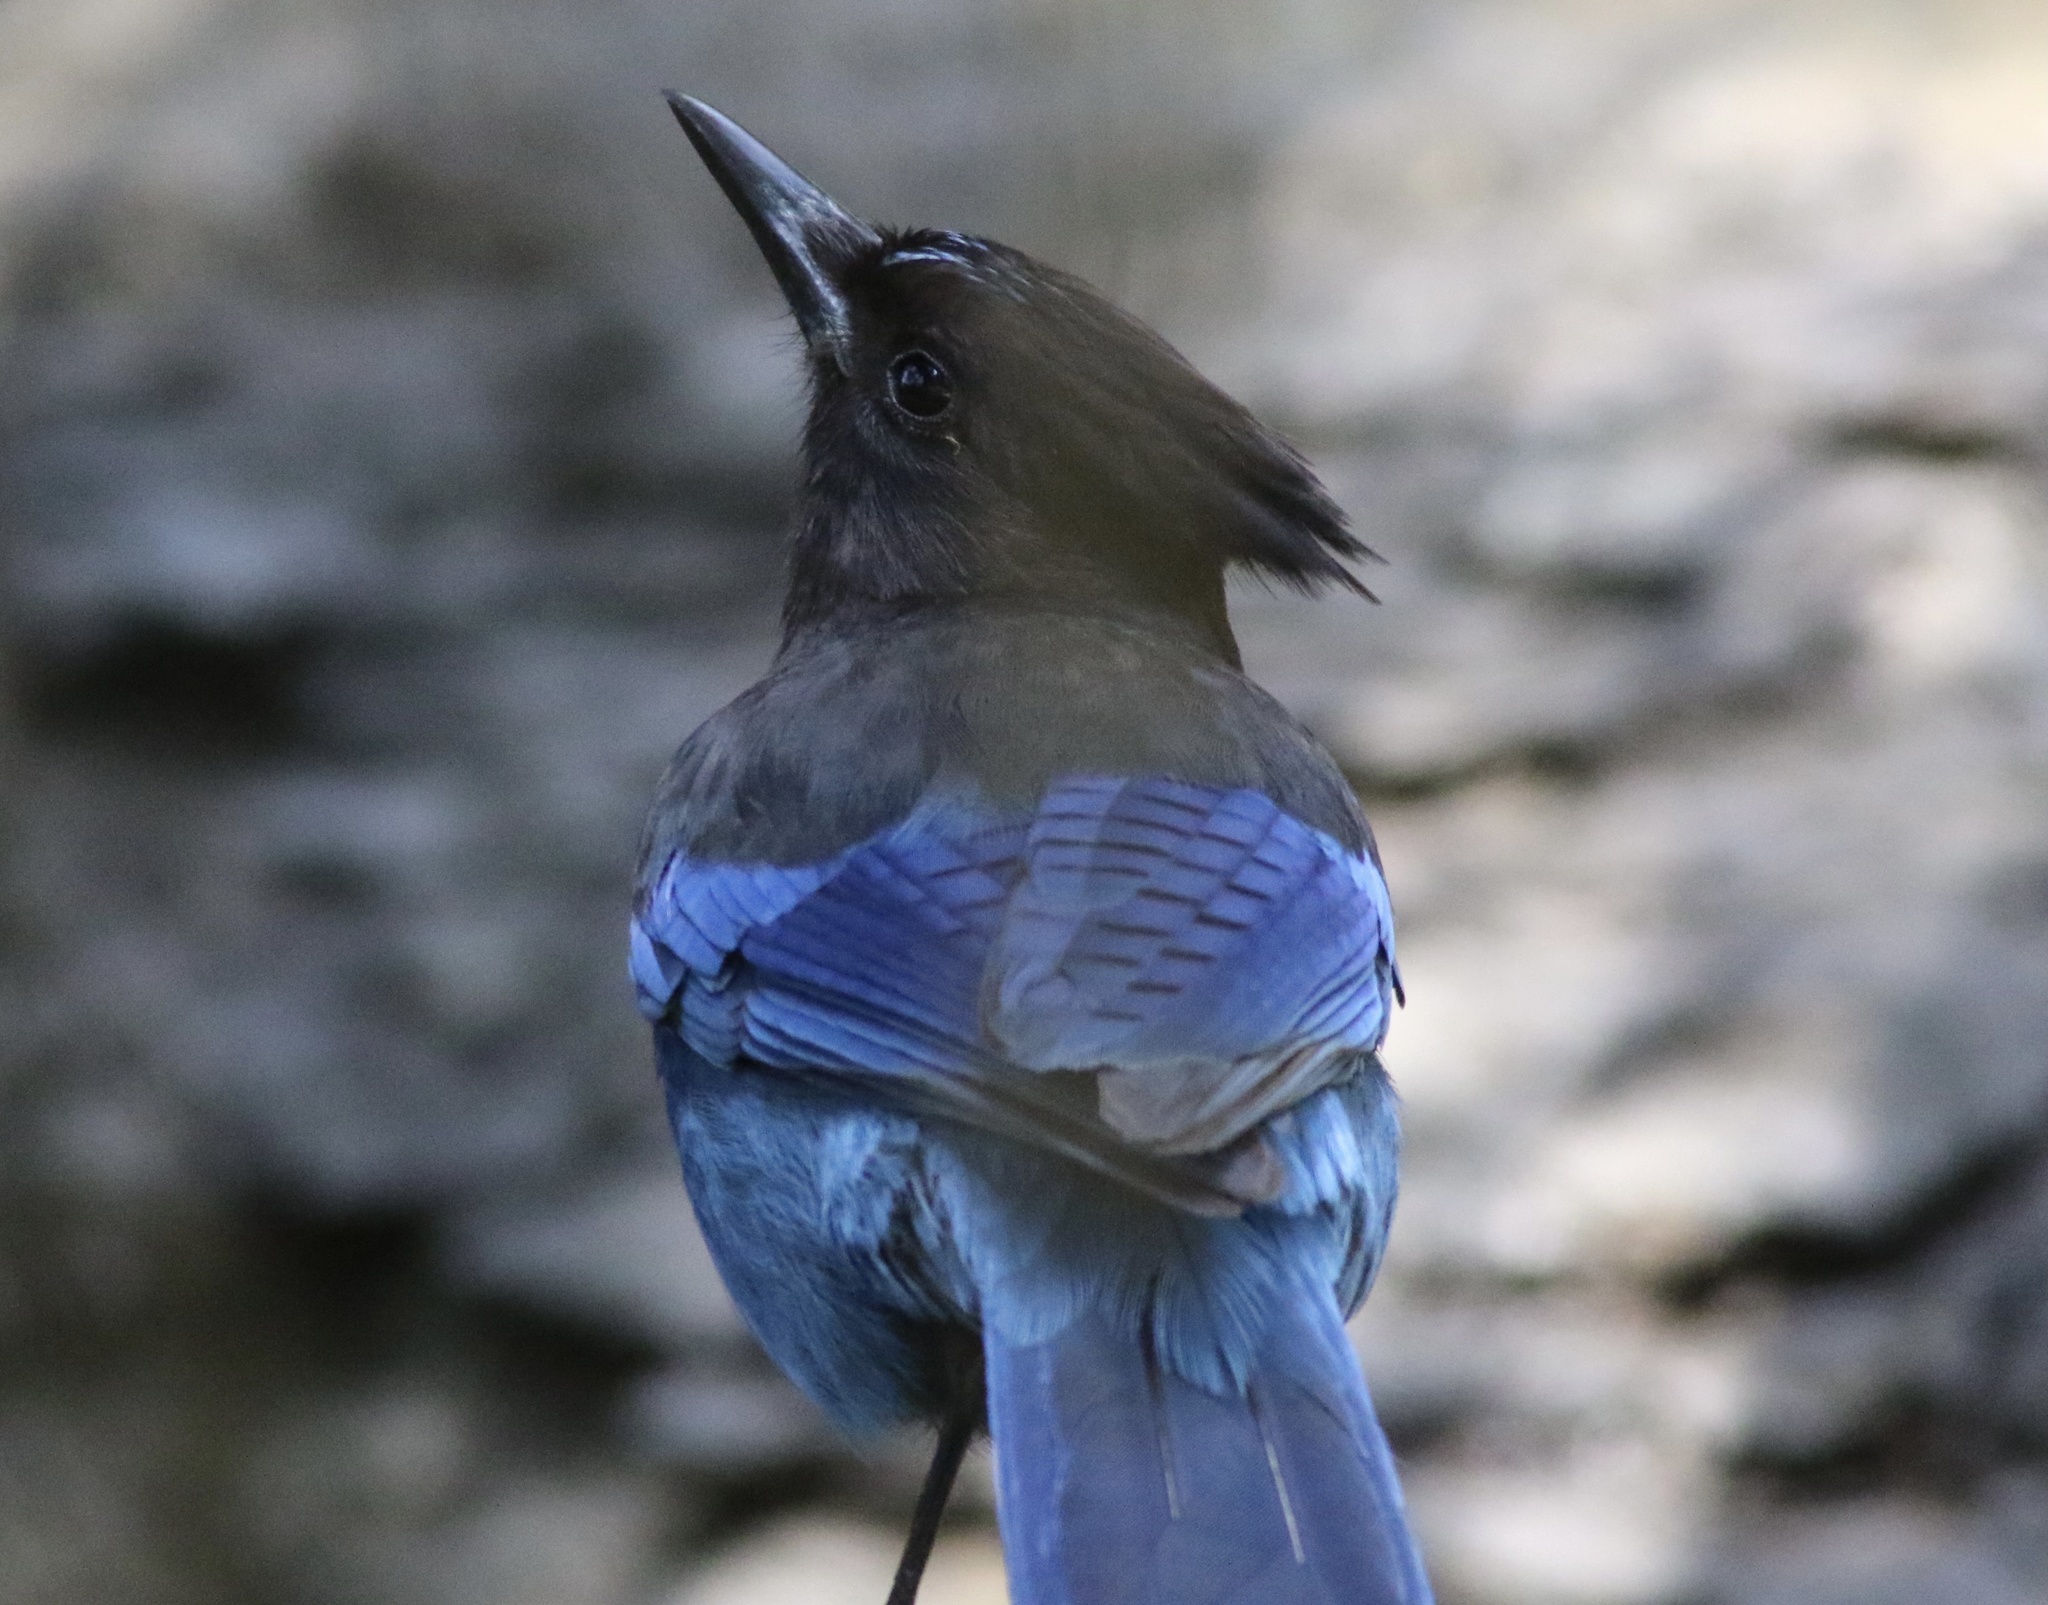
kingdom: Animalia
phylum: Chordata
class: Aves
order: Passeriformes
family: Corvidae
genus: Cyanocitta
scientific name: Cyanocitta stelleri
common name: Steller's jay
